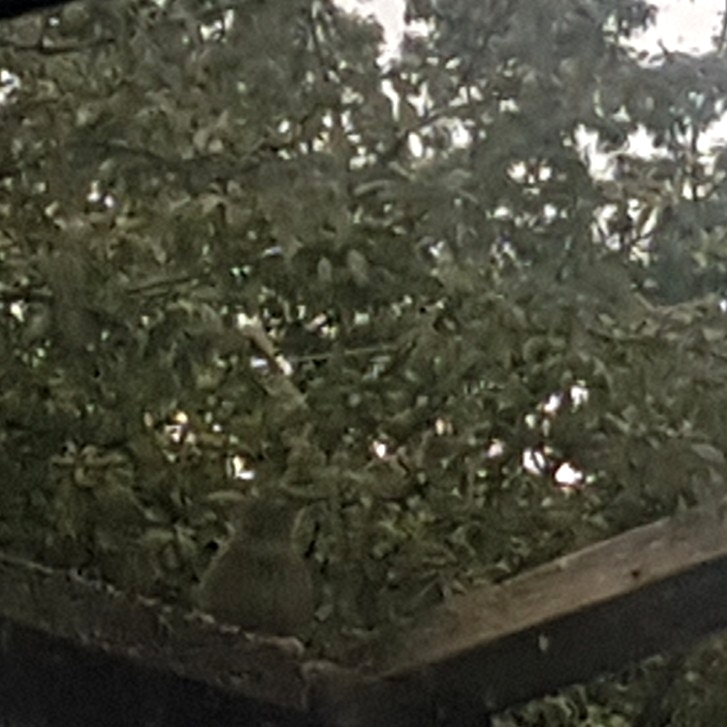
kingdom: Animalia
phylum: Chordata
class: Aves
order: Passeriformes
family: Sturnidae
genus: Sturnus
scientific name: Sturnus vulgaris
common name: Common starling
